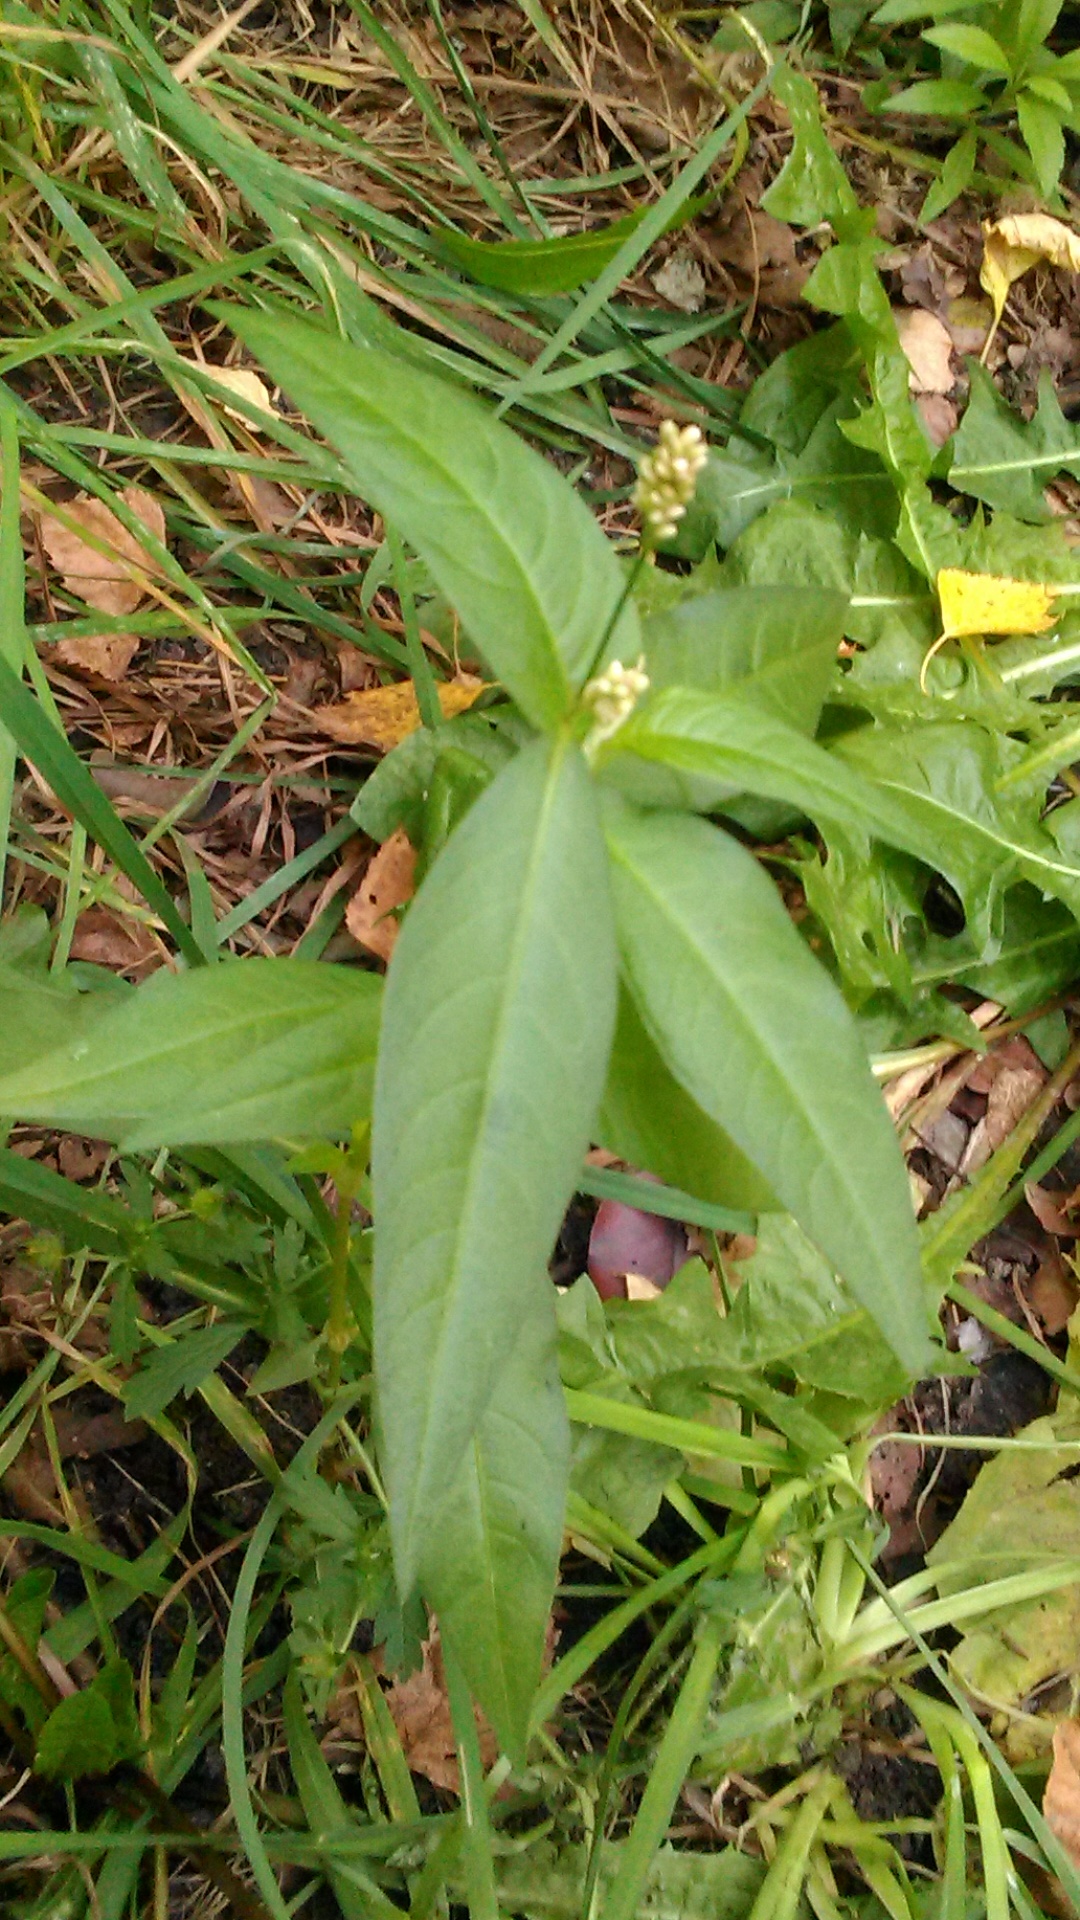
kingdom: Plantae
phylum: Tracheophyta
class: Magnoliopsida
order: Caryophyllales
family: Polygonaceae
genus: Persicaria
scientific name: Persicaria maculosa
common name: Redshank
